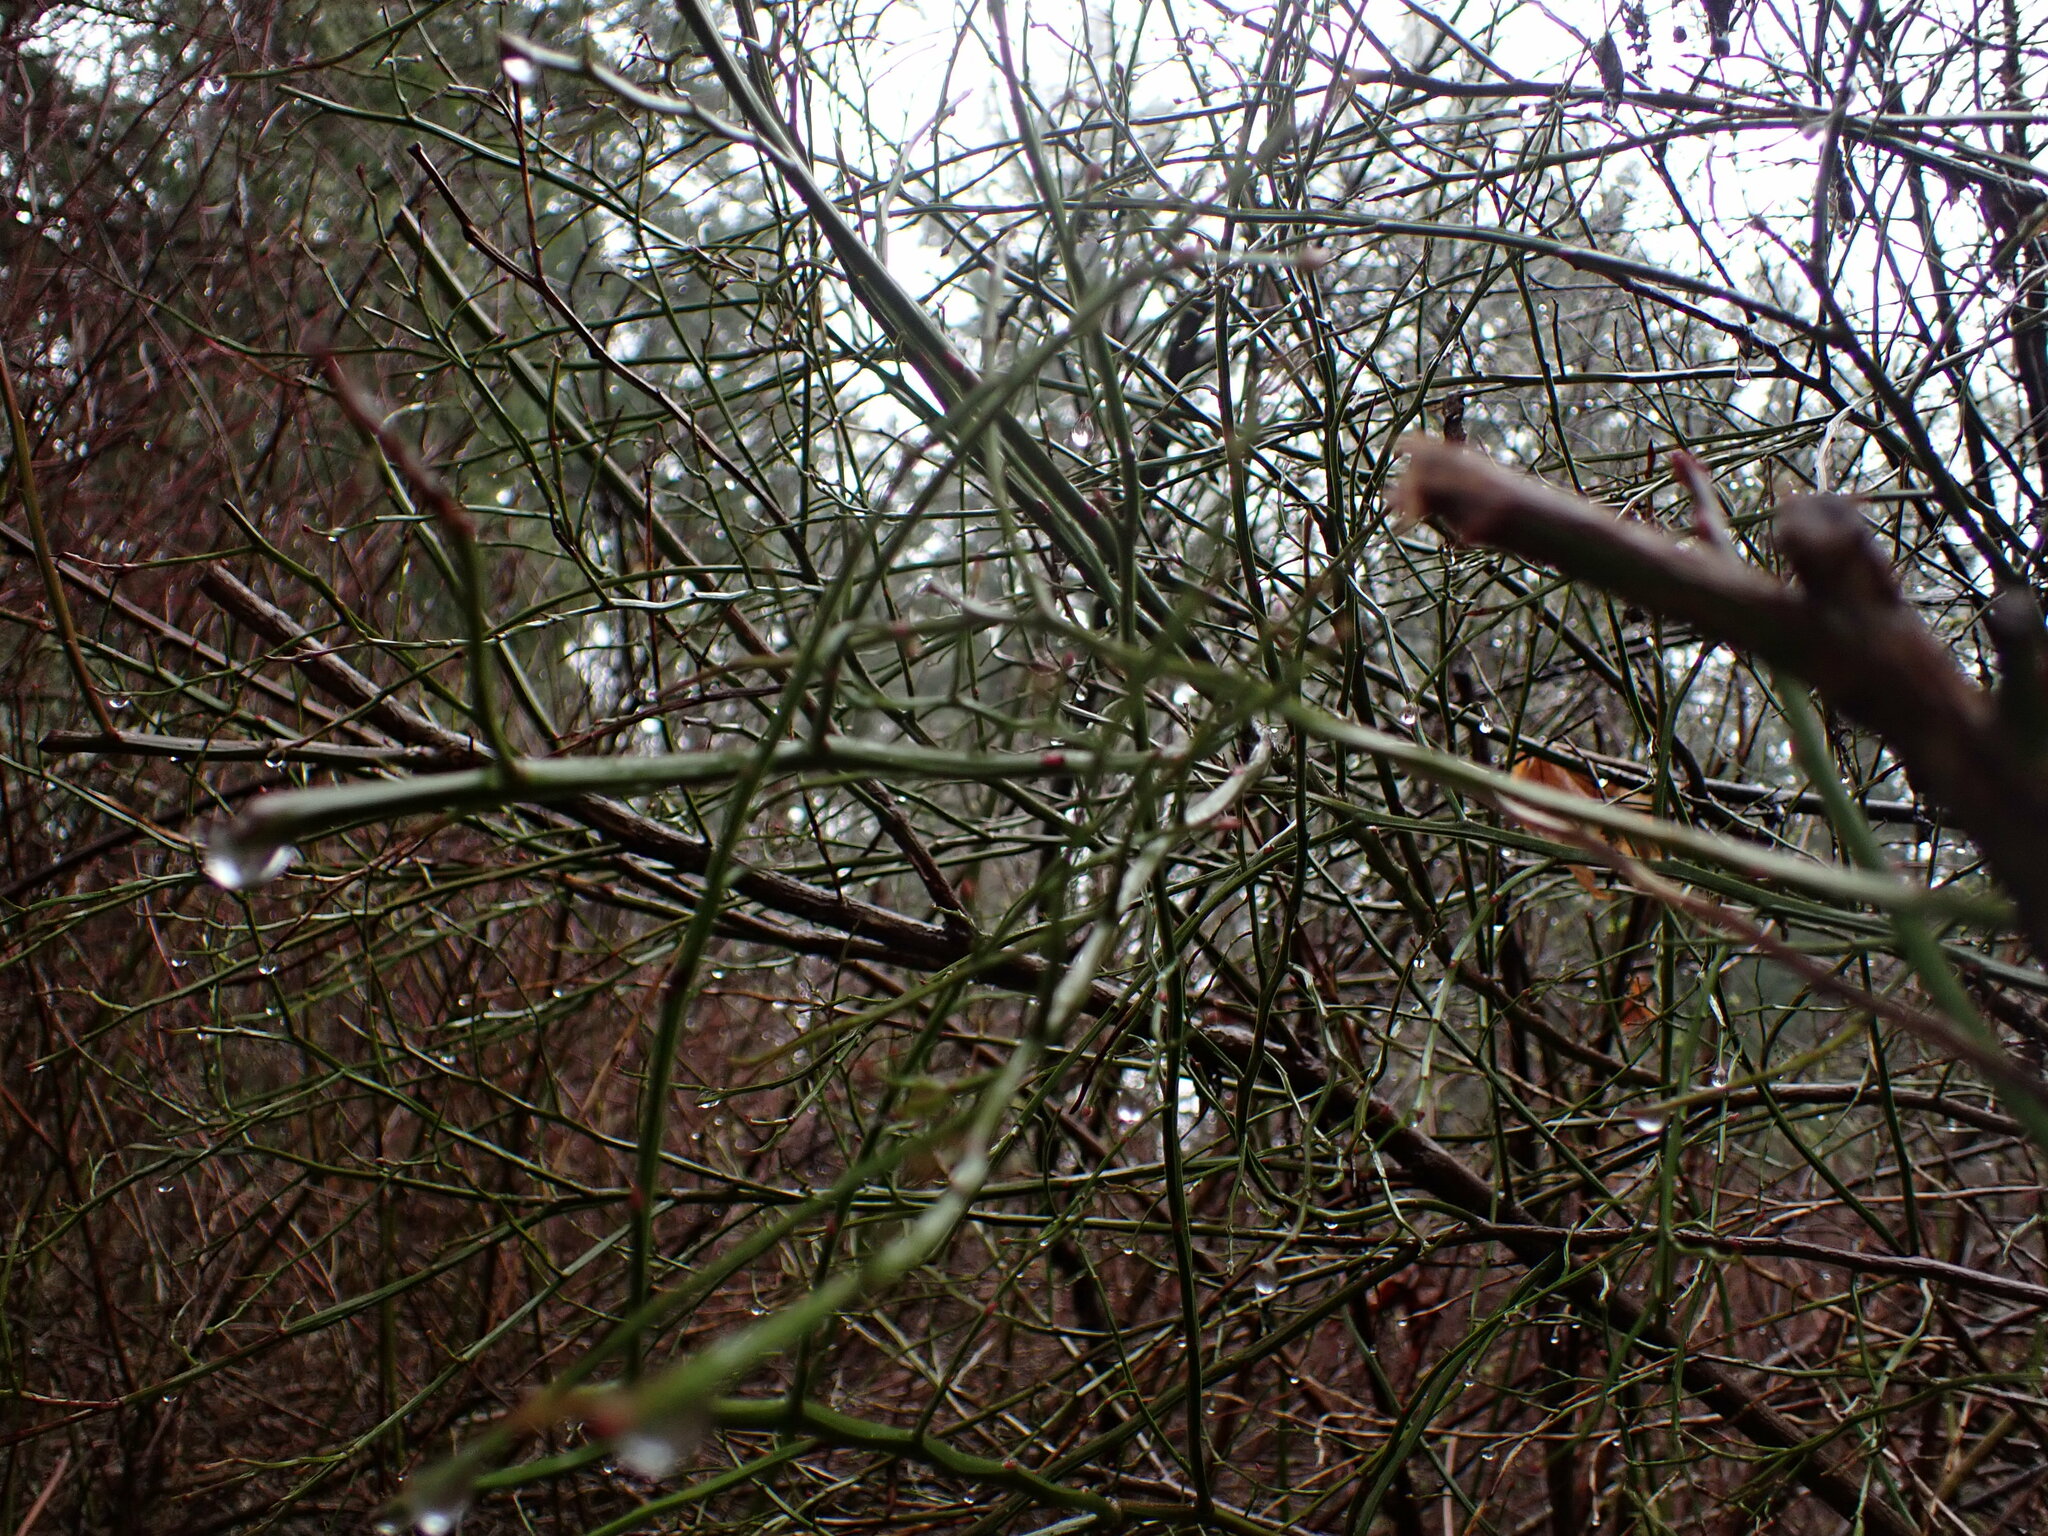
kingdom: Plantae
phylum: Tracheophyta
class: Magnoliopsida
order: Ericales
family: Ericaceae
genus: Vaccinium
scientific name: Vaccinium parvifolium
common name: Red-huckleberry
